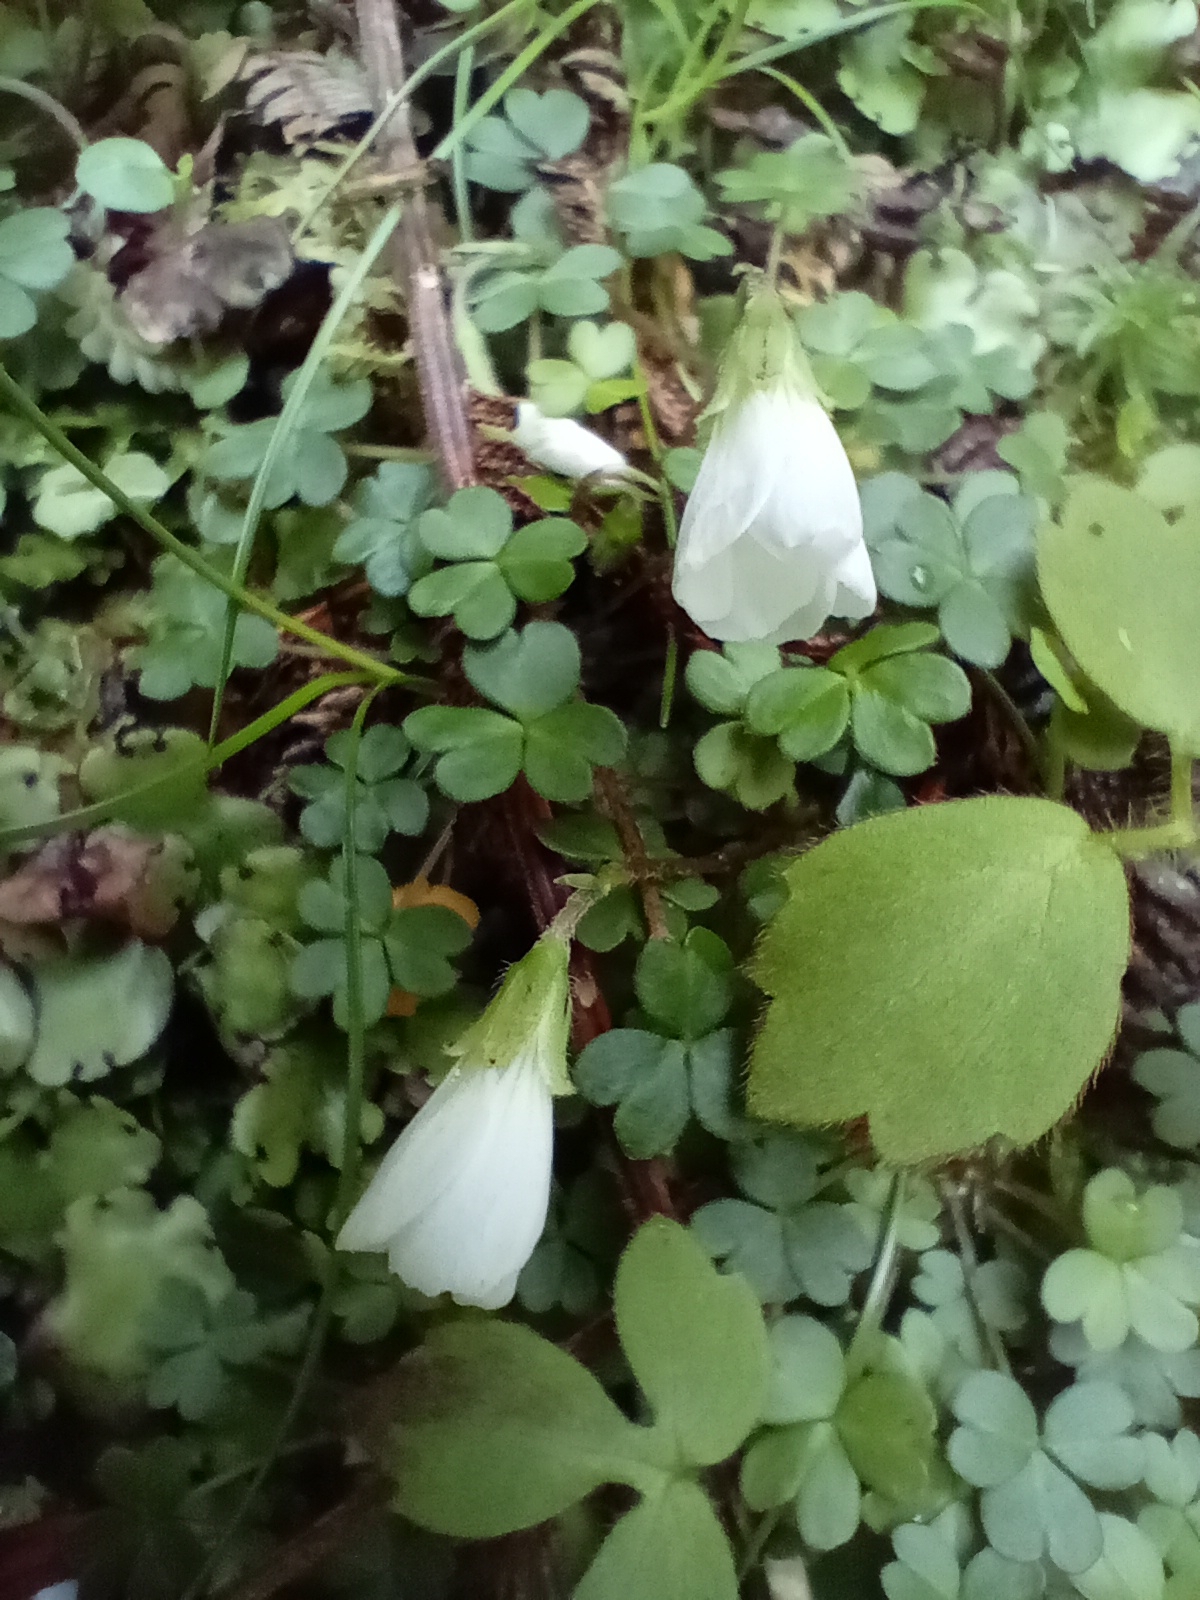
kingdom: Plantae
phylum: Tracheophyta
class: Magnoliopsida
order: Oxalidales
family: Oxalidaceae
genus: Oxalis
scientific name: Oxalis magellanica
